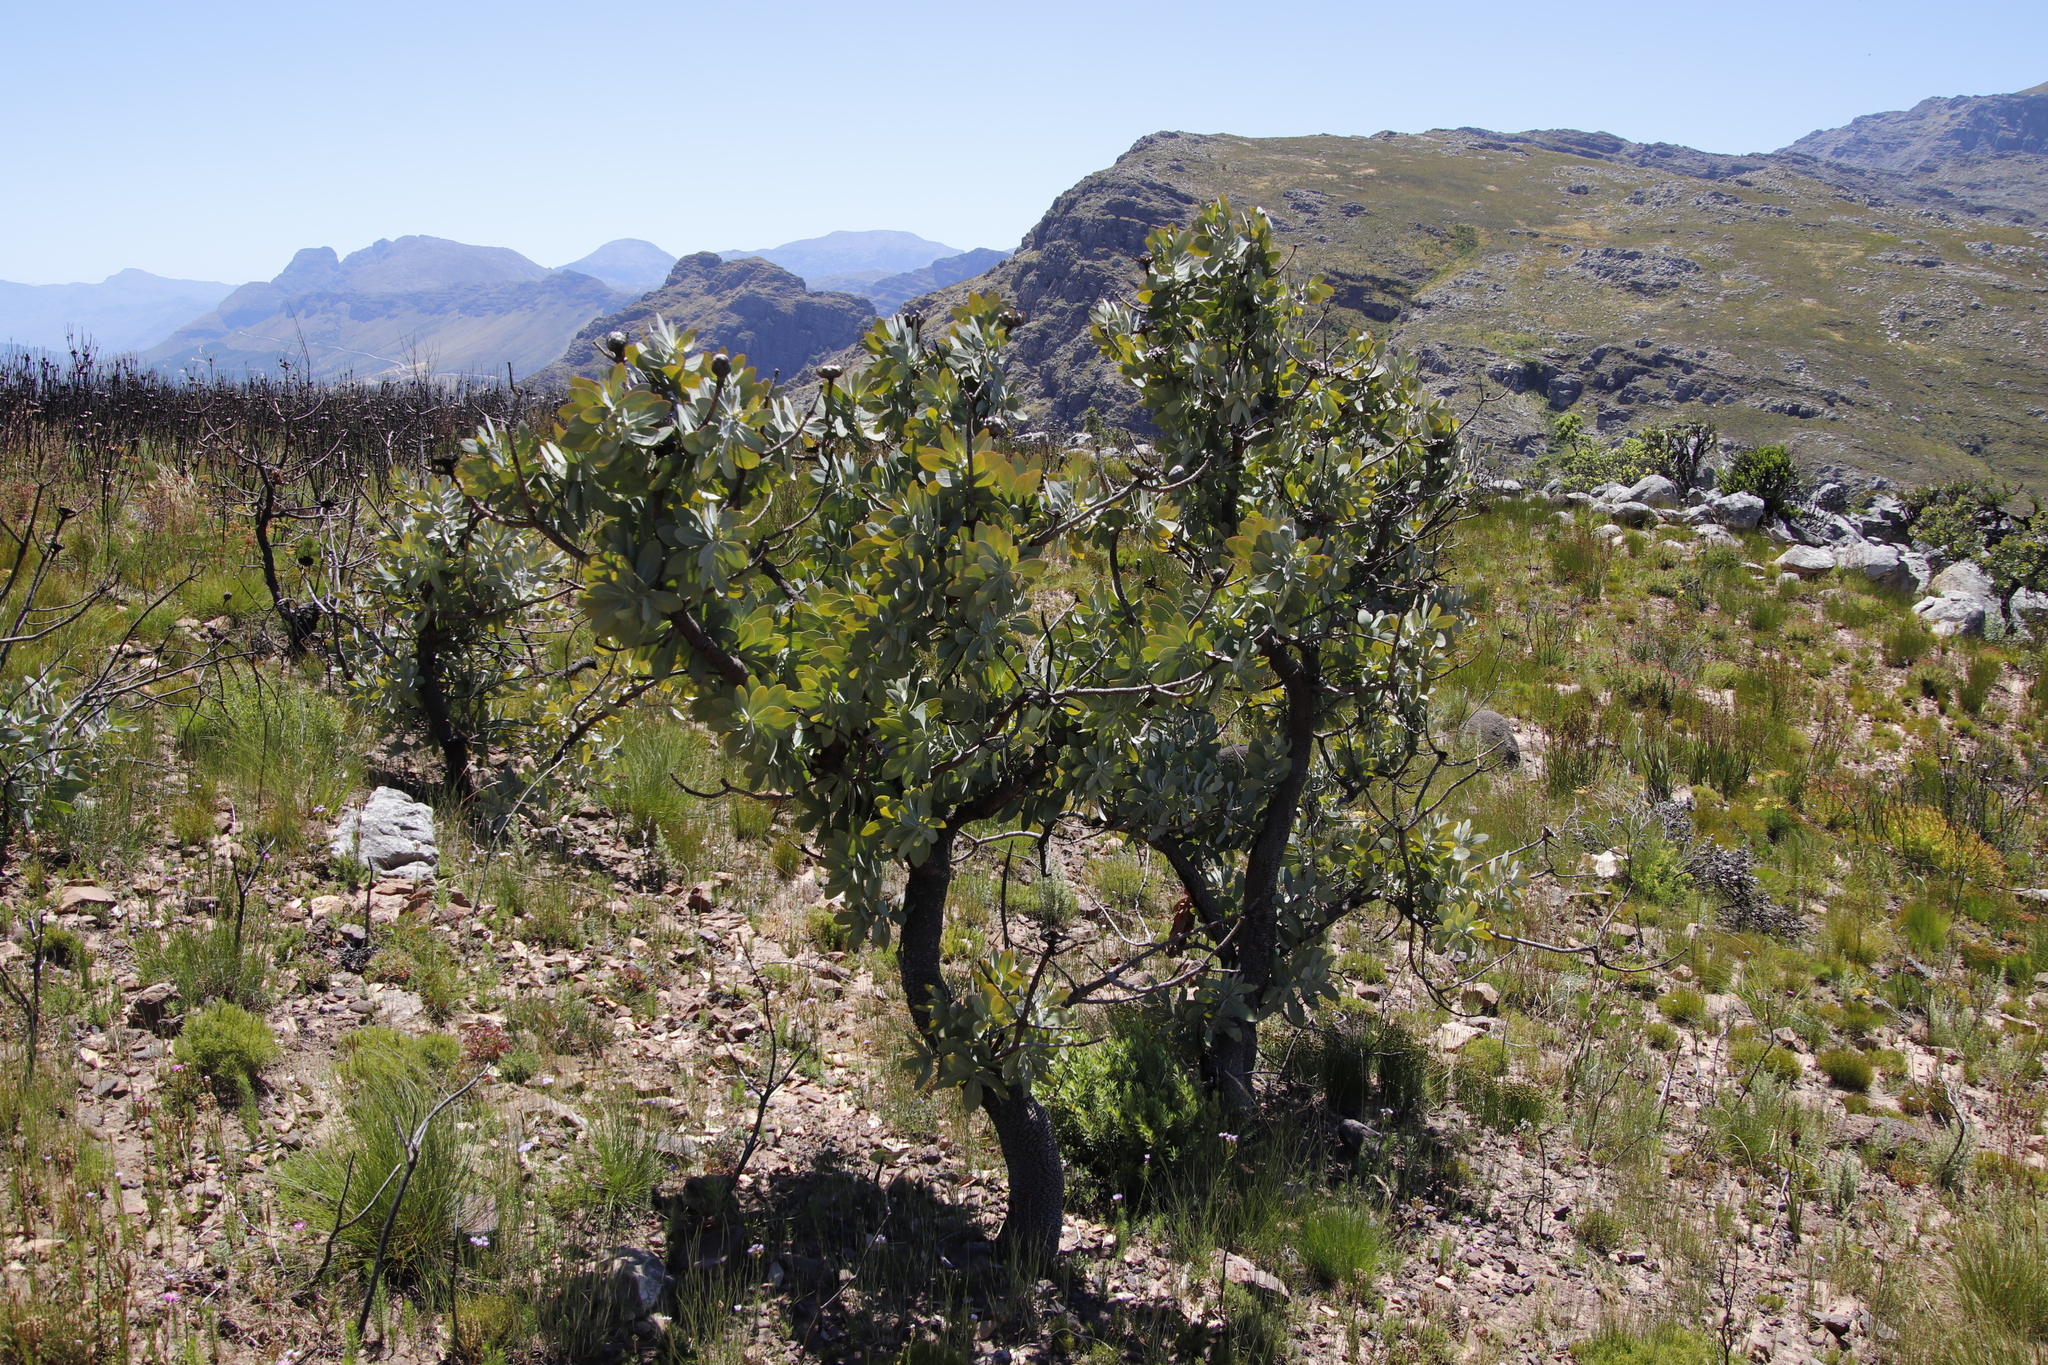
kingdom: Plantae
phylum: Tracheophyta
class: Magnoliopsida
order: Proteales
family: Proteaceae
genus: Protea
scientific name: Protea nitida
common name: Tree protea
